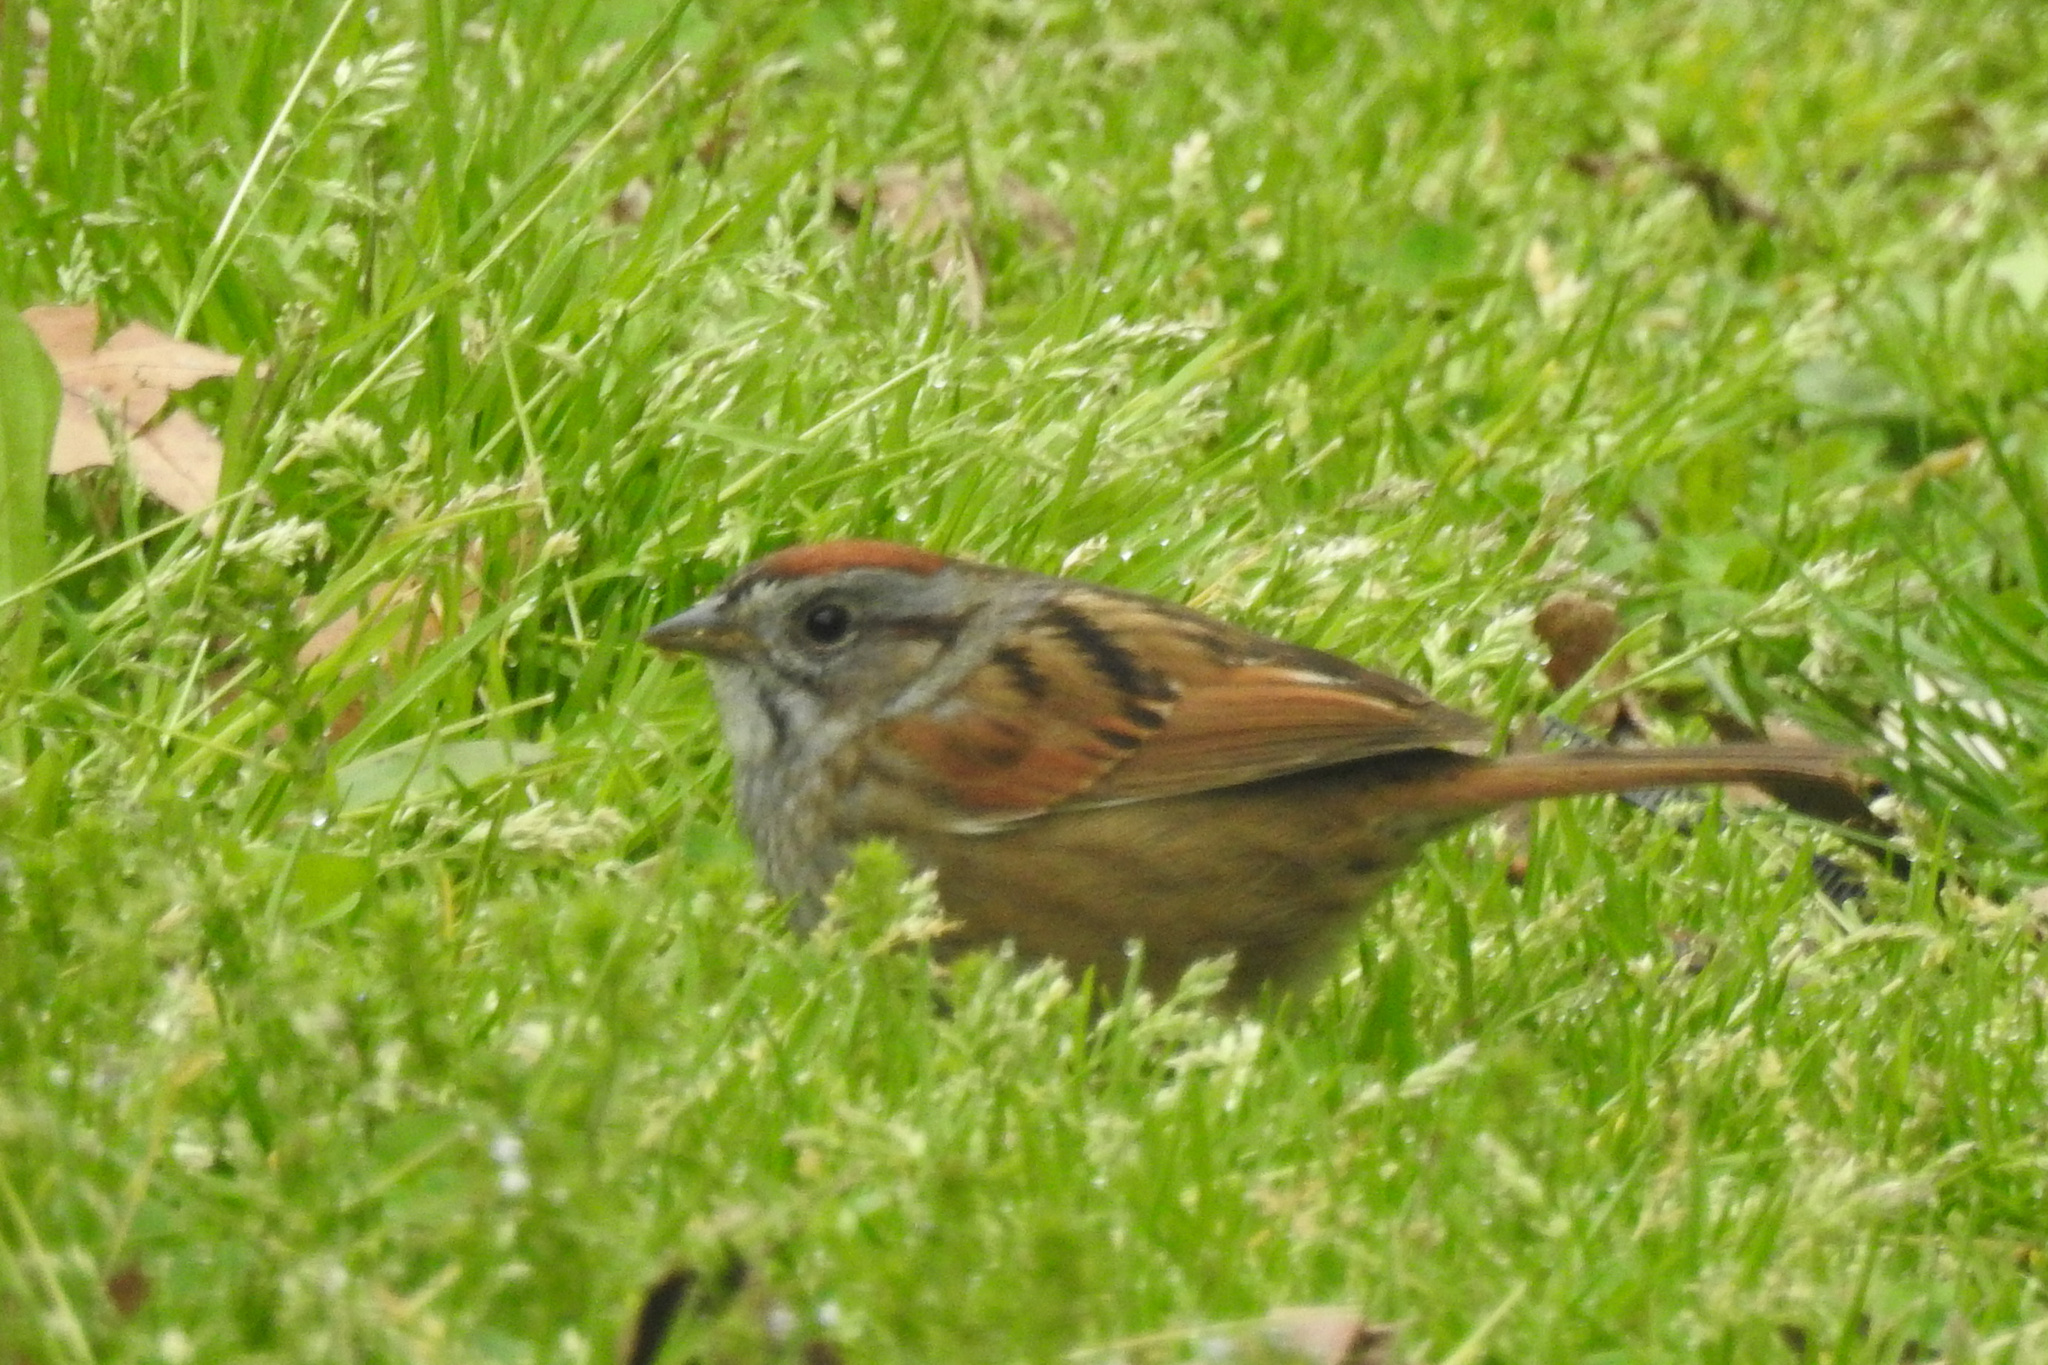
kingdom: Animalia
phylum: Chordata
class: Aves
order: Passeriformes
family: Passerellidae
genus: Melospiza
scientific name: Melospiza georgiana
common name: Swamp sparrow
